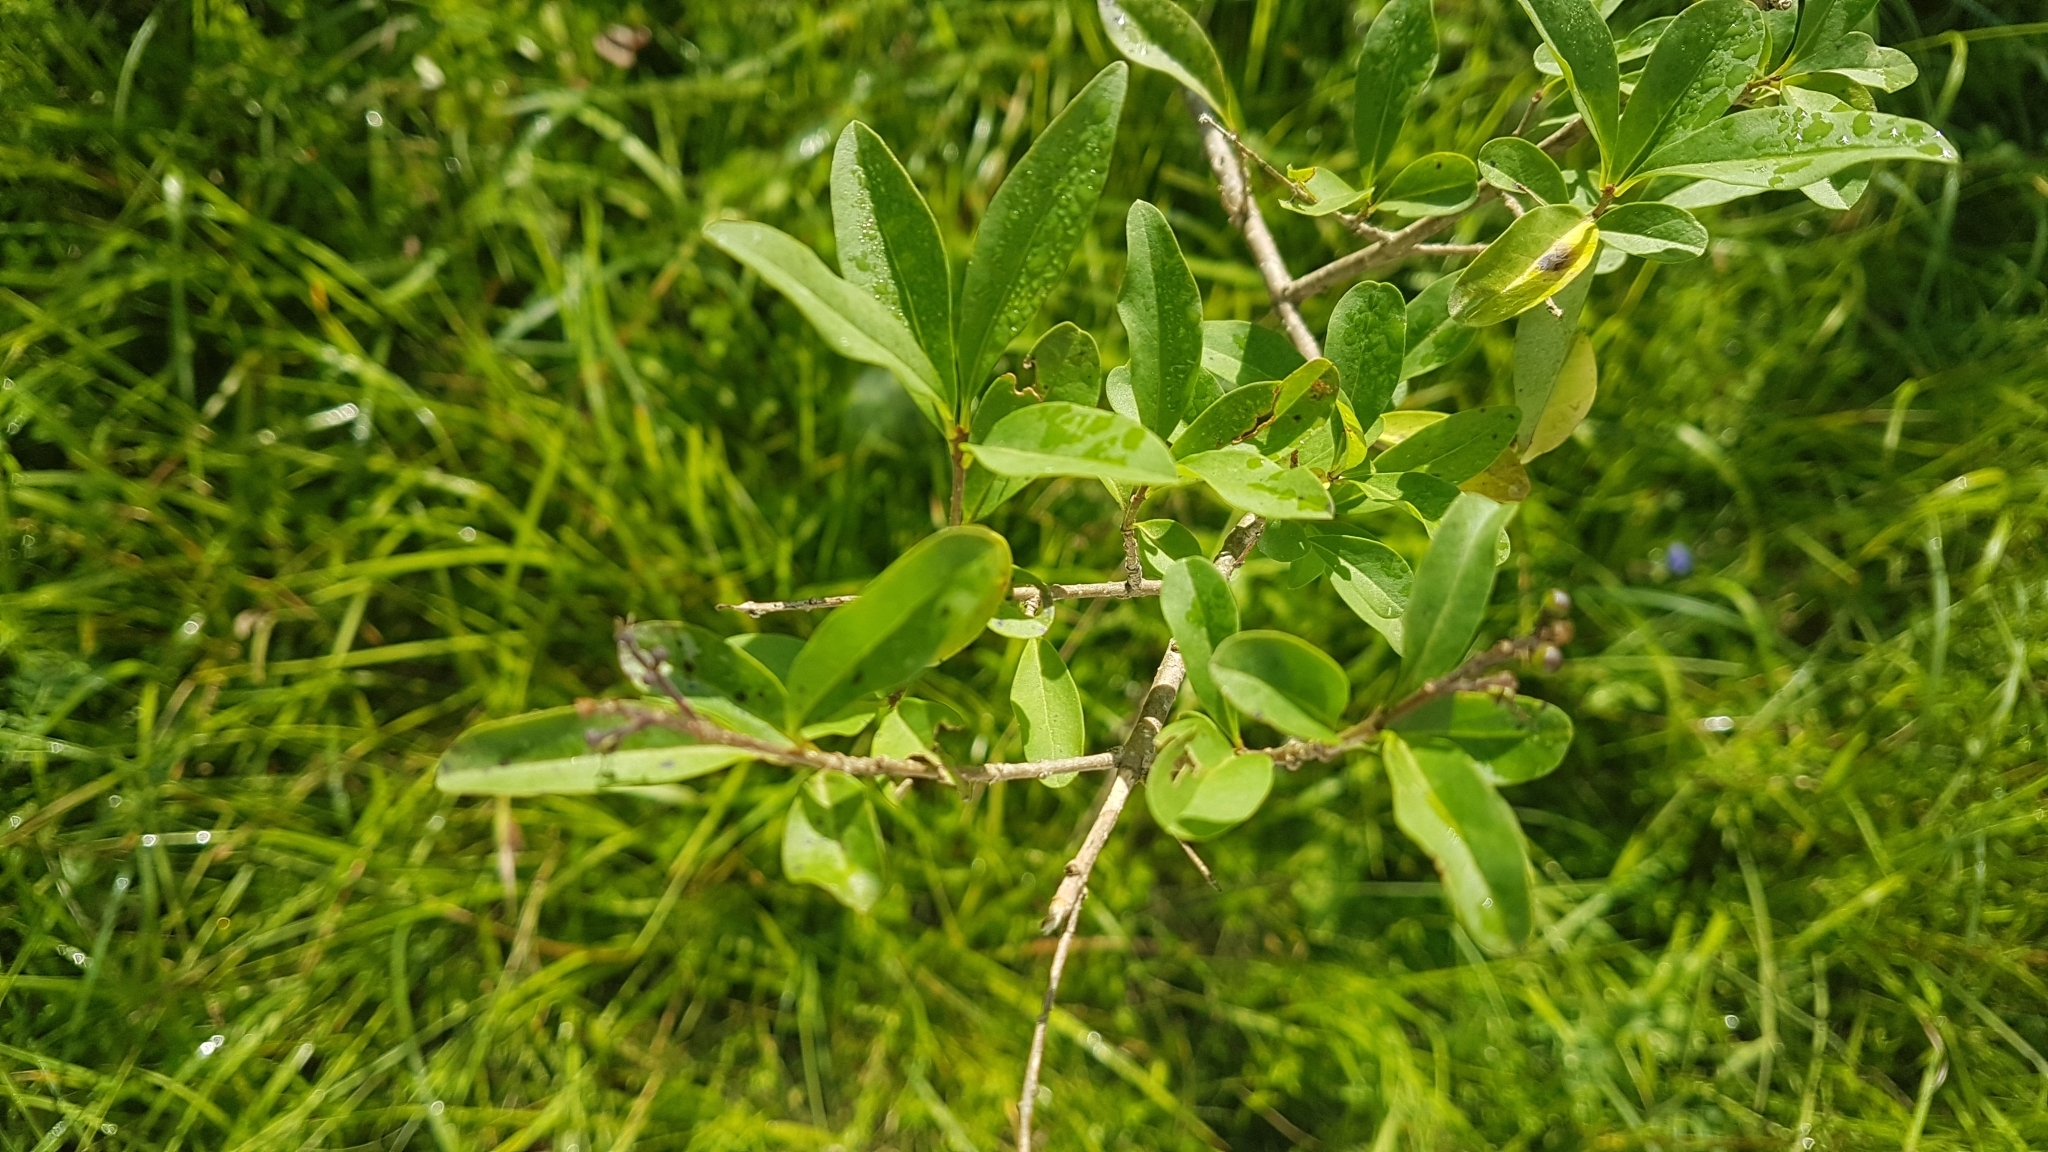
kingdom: Plantae
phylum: Tracheophyta
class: Magnoliopsida
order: Lamiales
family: Oleaceae
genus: Ligustrum
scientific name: Ligustrum vulgare
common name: Wild privet
